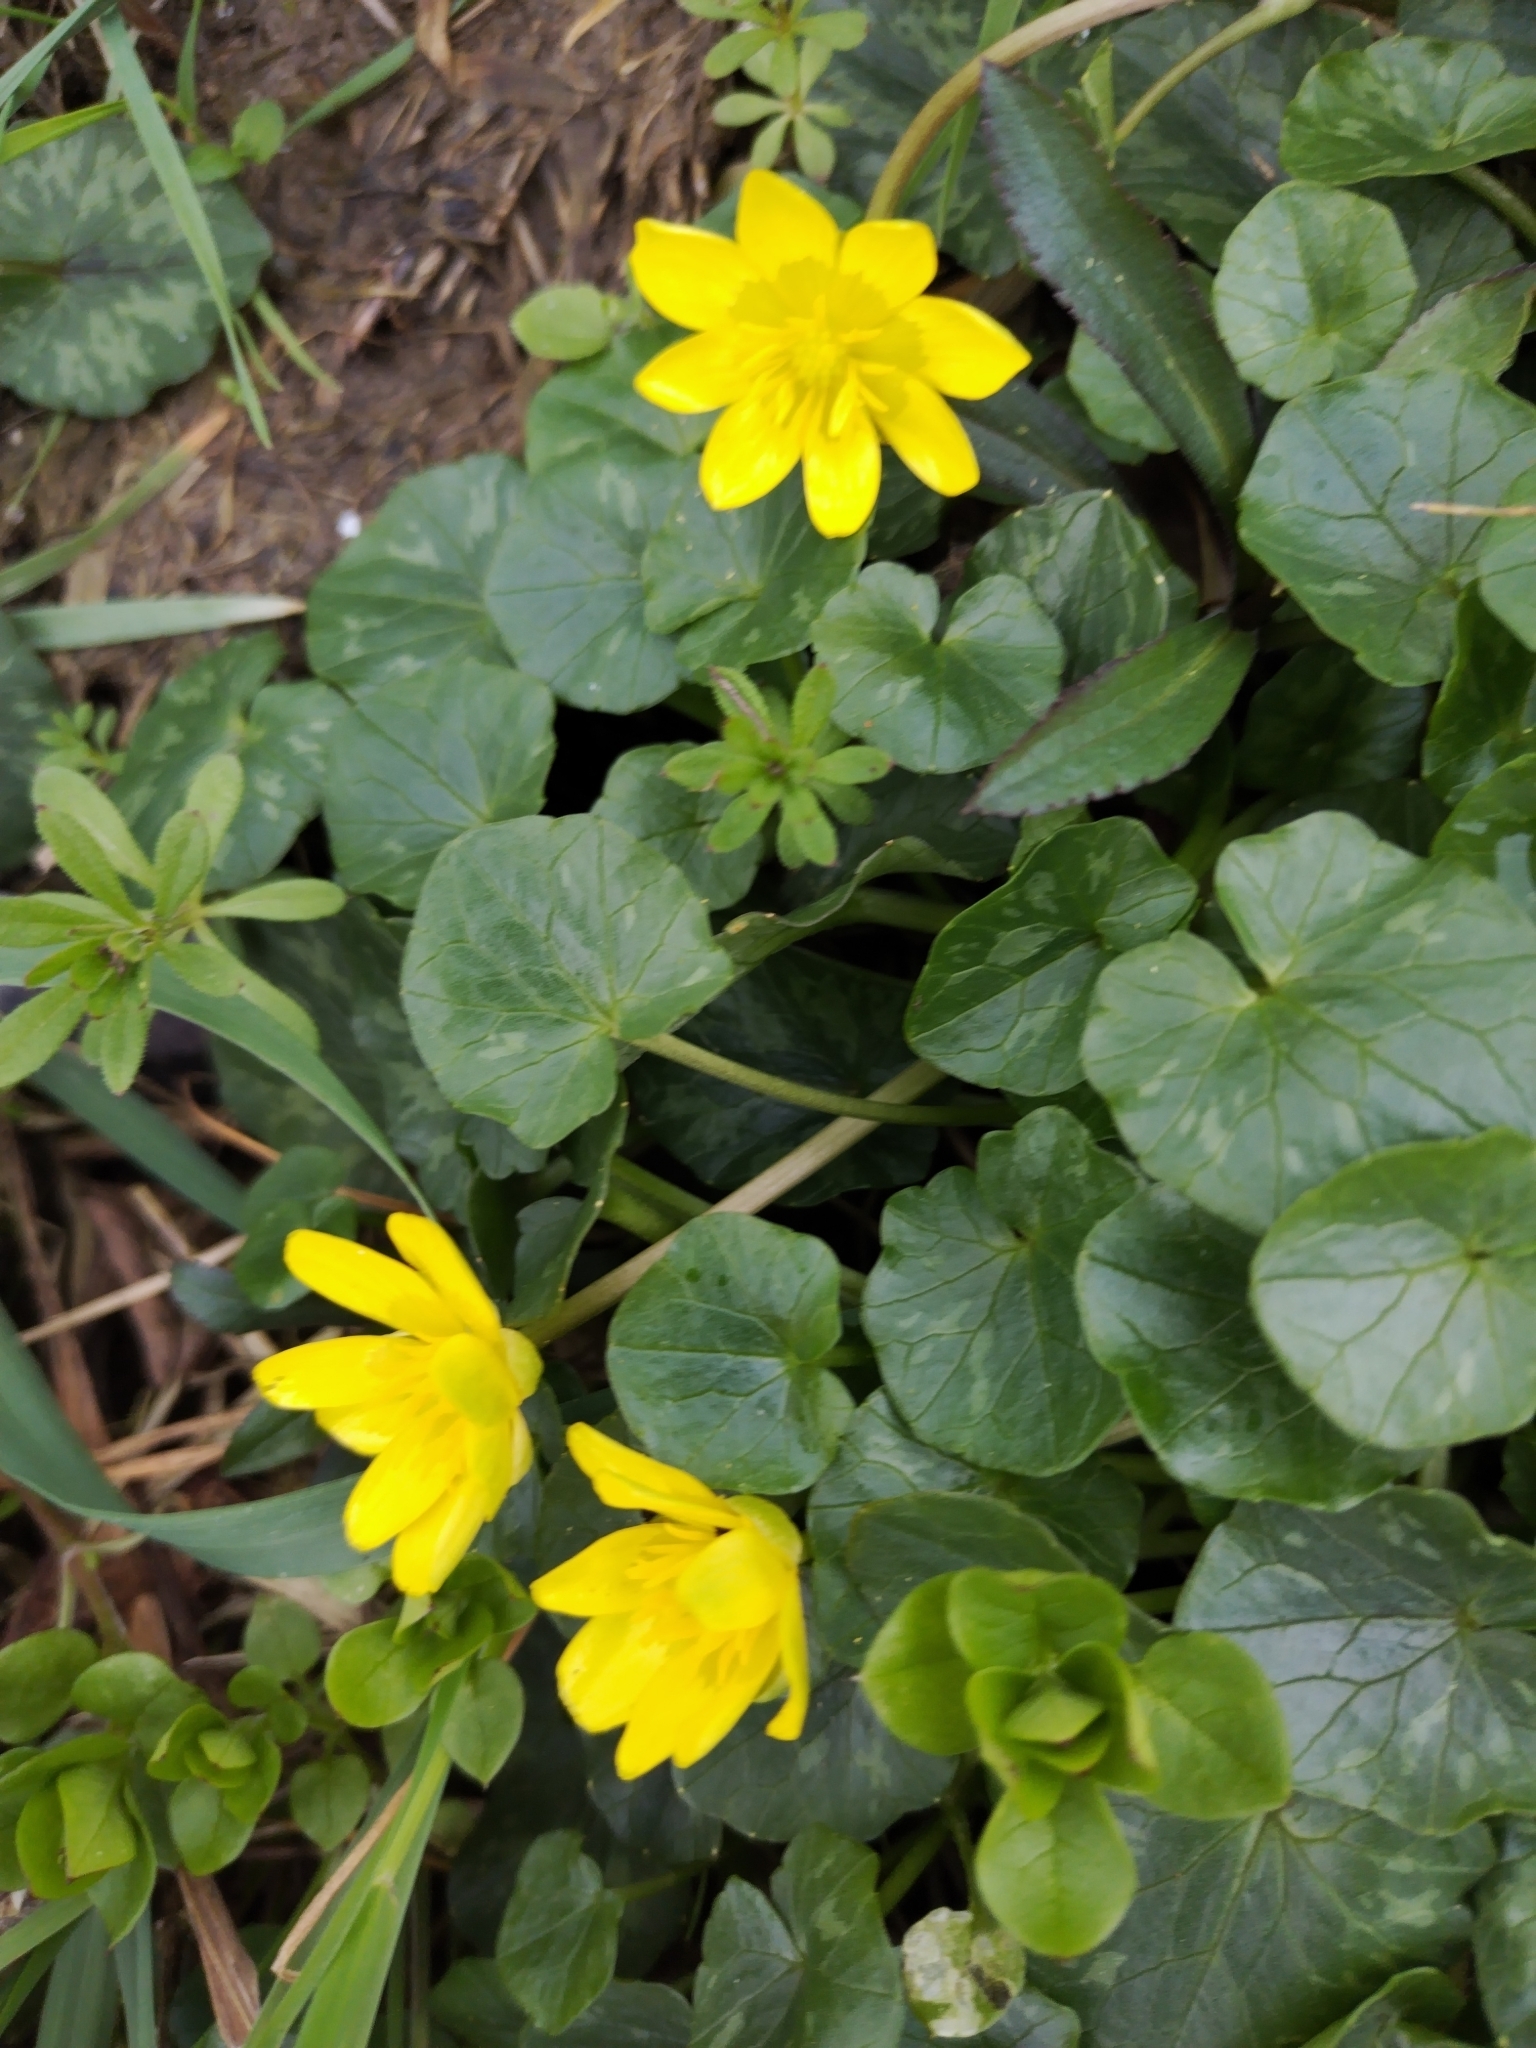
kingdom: Plantae
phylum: Tracheophyta
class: Magnoliopsida
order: Ranunculales
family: Ranunculaceae
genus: Ficaria
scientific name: Ficaria verna
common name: Lesser celandine
